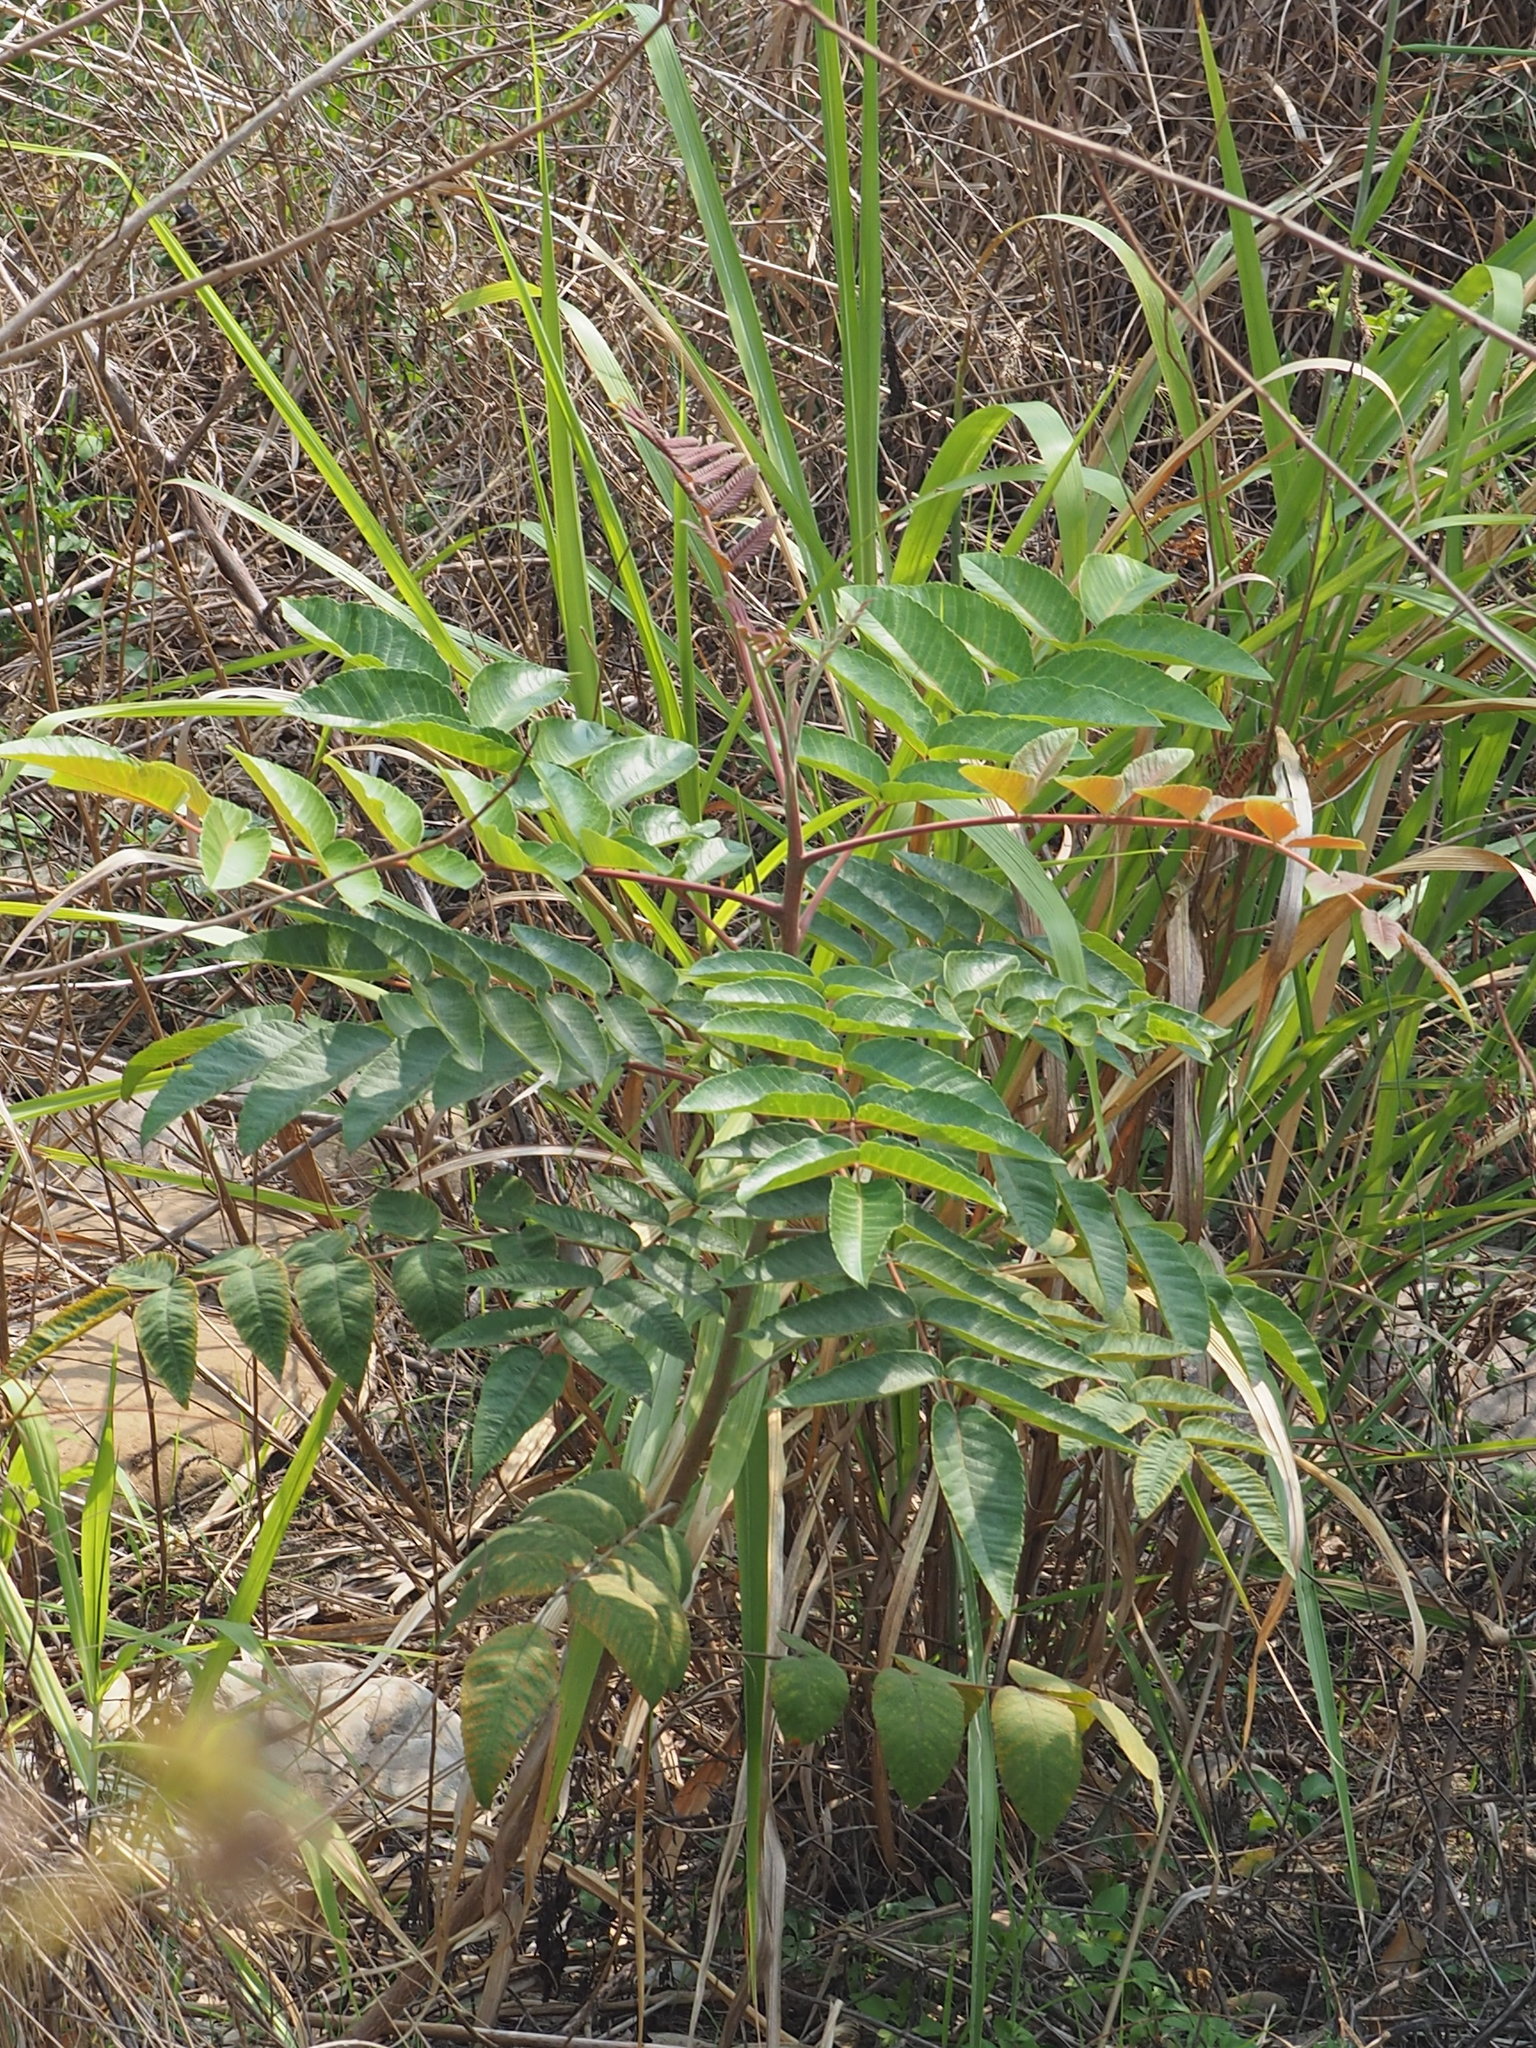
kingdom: Plantae
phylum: Tracheophyta
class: Magnoliopsida
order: Sapindales
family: Anacardiaceae
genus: Rhus
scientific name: Rhus chinensis
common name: Chinese gall
